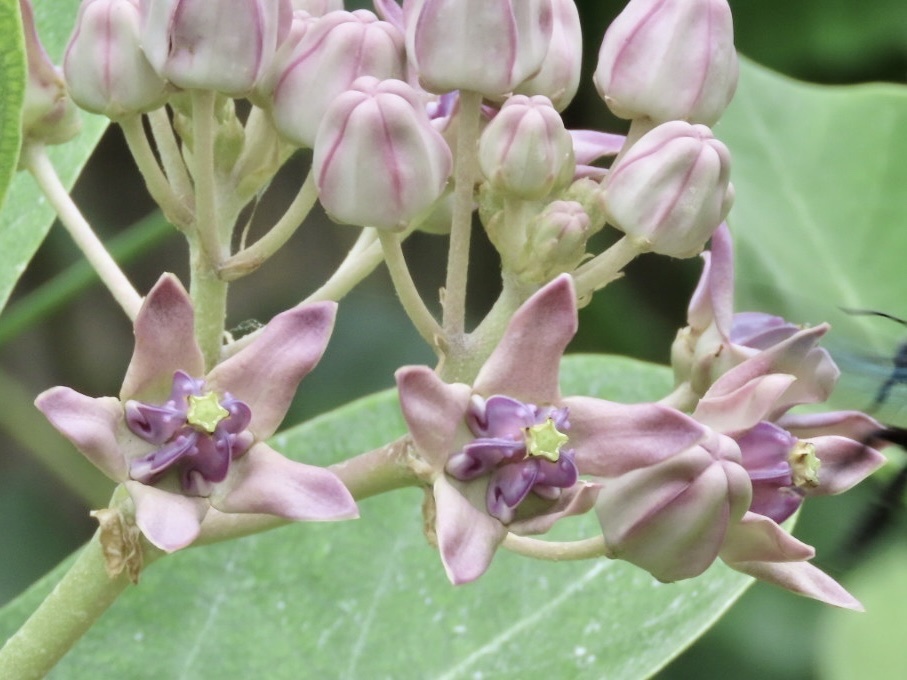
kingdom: Plantae
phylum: Tracheophyta
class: Magnoliopsida
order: Gentianales
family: Apocynaceae
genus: Calotropis
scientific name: Calotropis gigantea
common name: Crown flower
